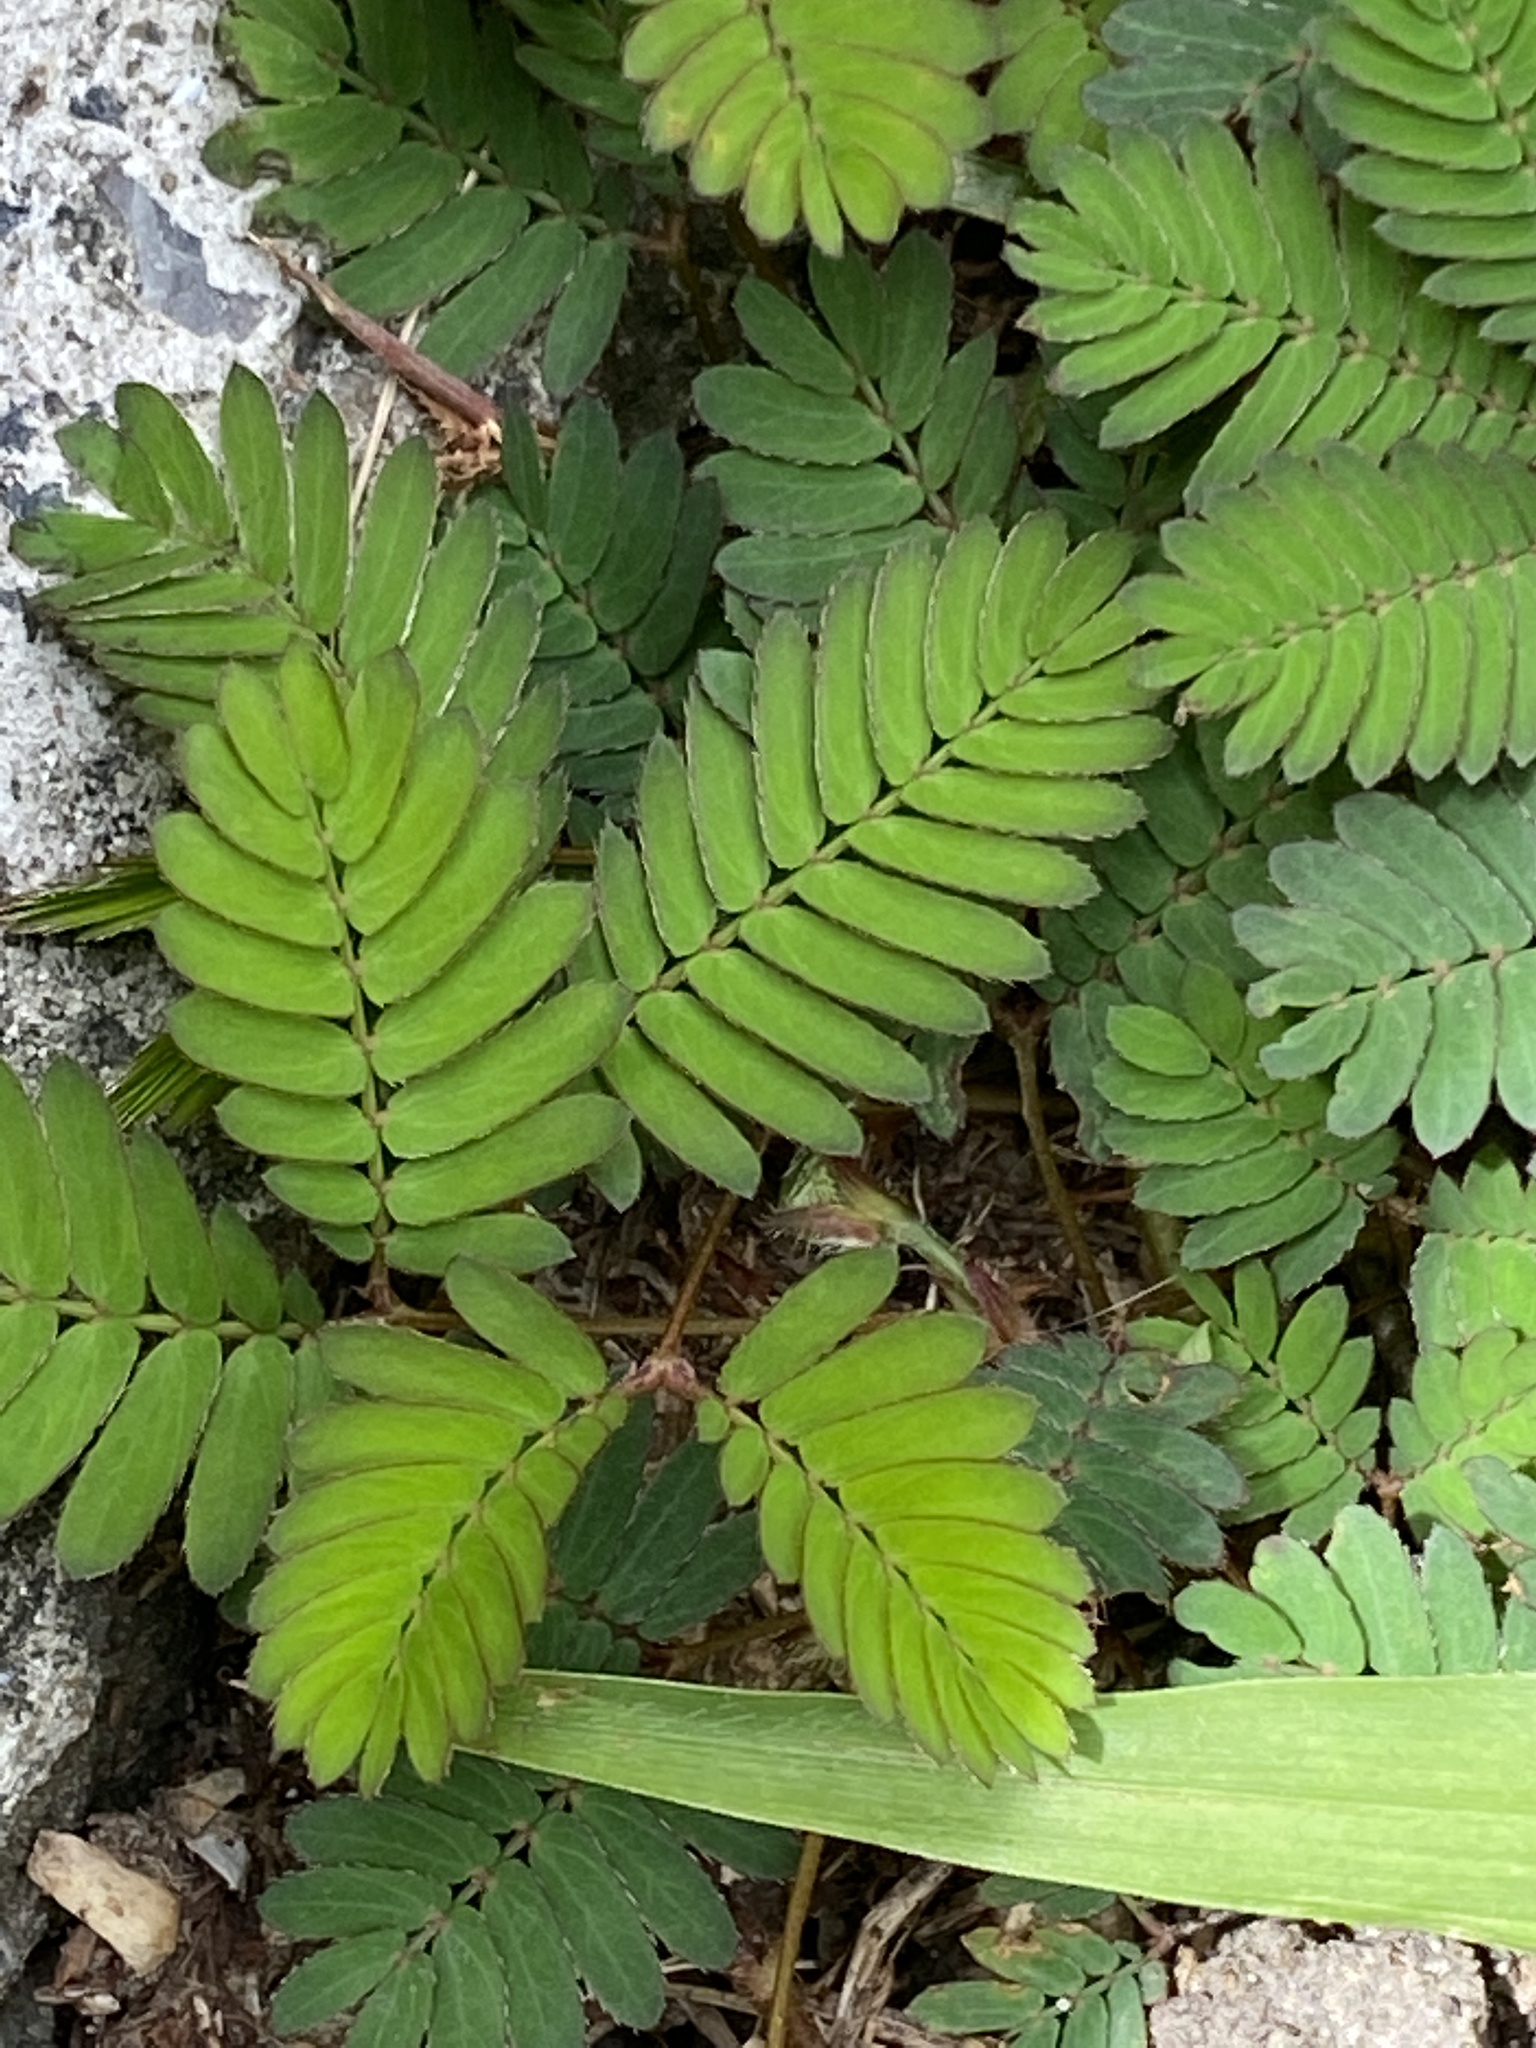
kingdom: Plantae
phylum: Tracheophyta
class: Magnoliopsida
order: Fabales
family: Fabaceae
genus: Mimosa
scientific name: Mimosa pudica
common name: Sensitive plant
